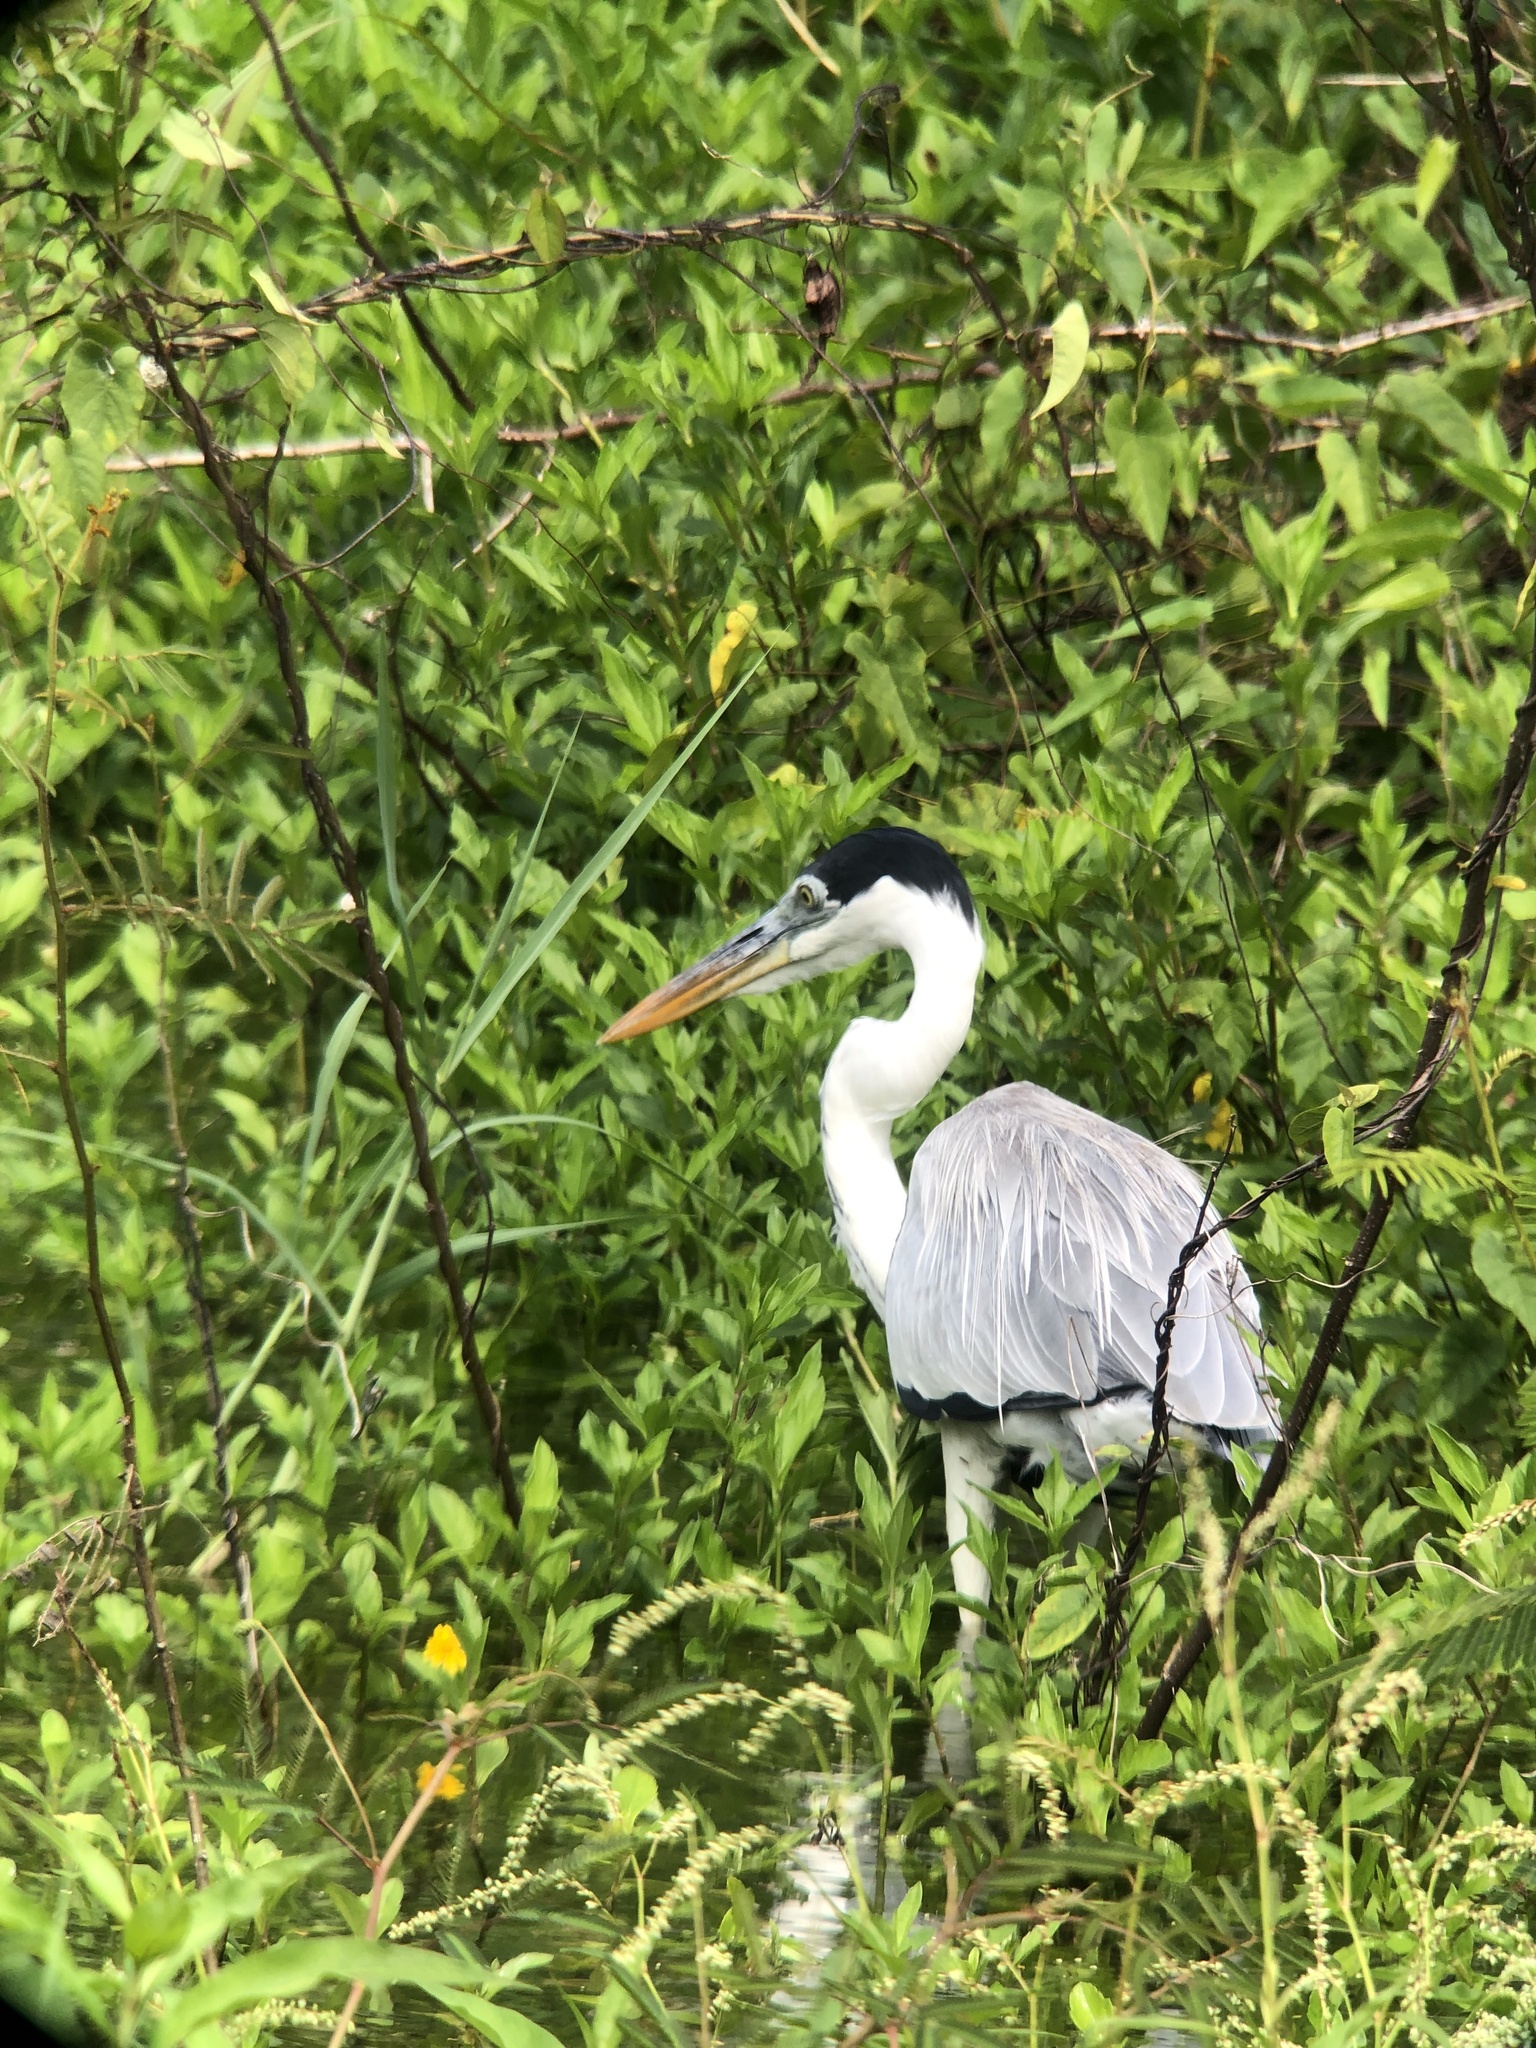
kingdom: Animalia
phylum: Chordata
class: Aves
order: Pelecaniformes
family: Ardeidae
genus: Ardea
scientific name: Ardea cocoi
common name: Cocoi heron
